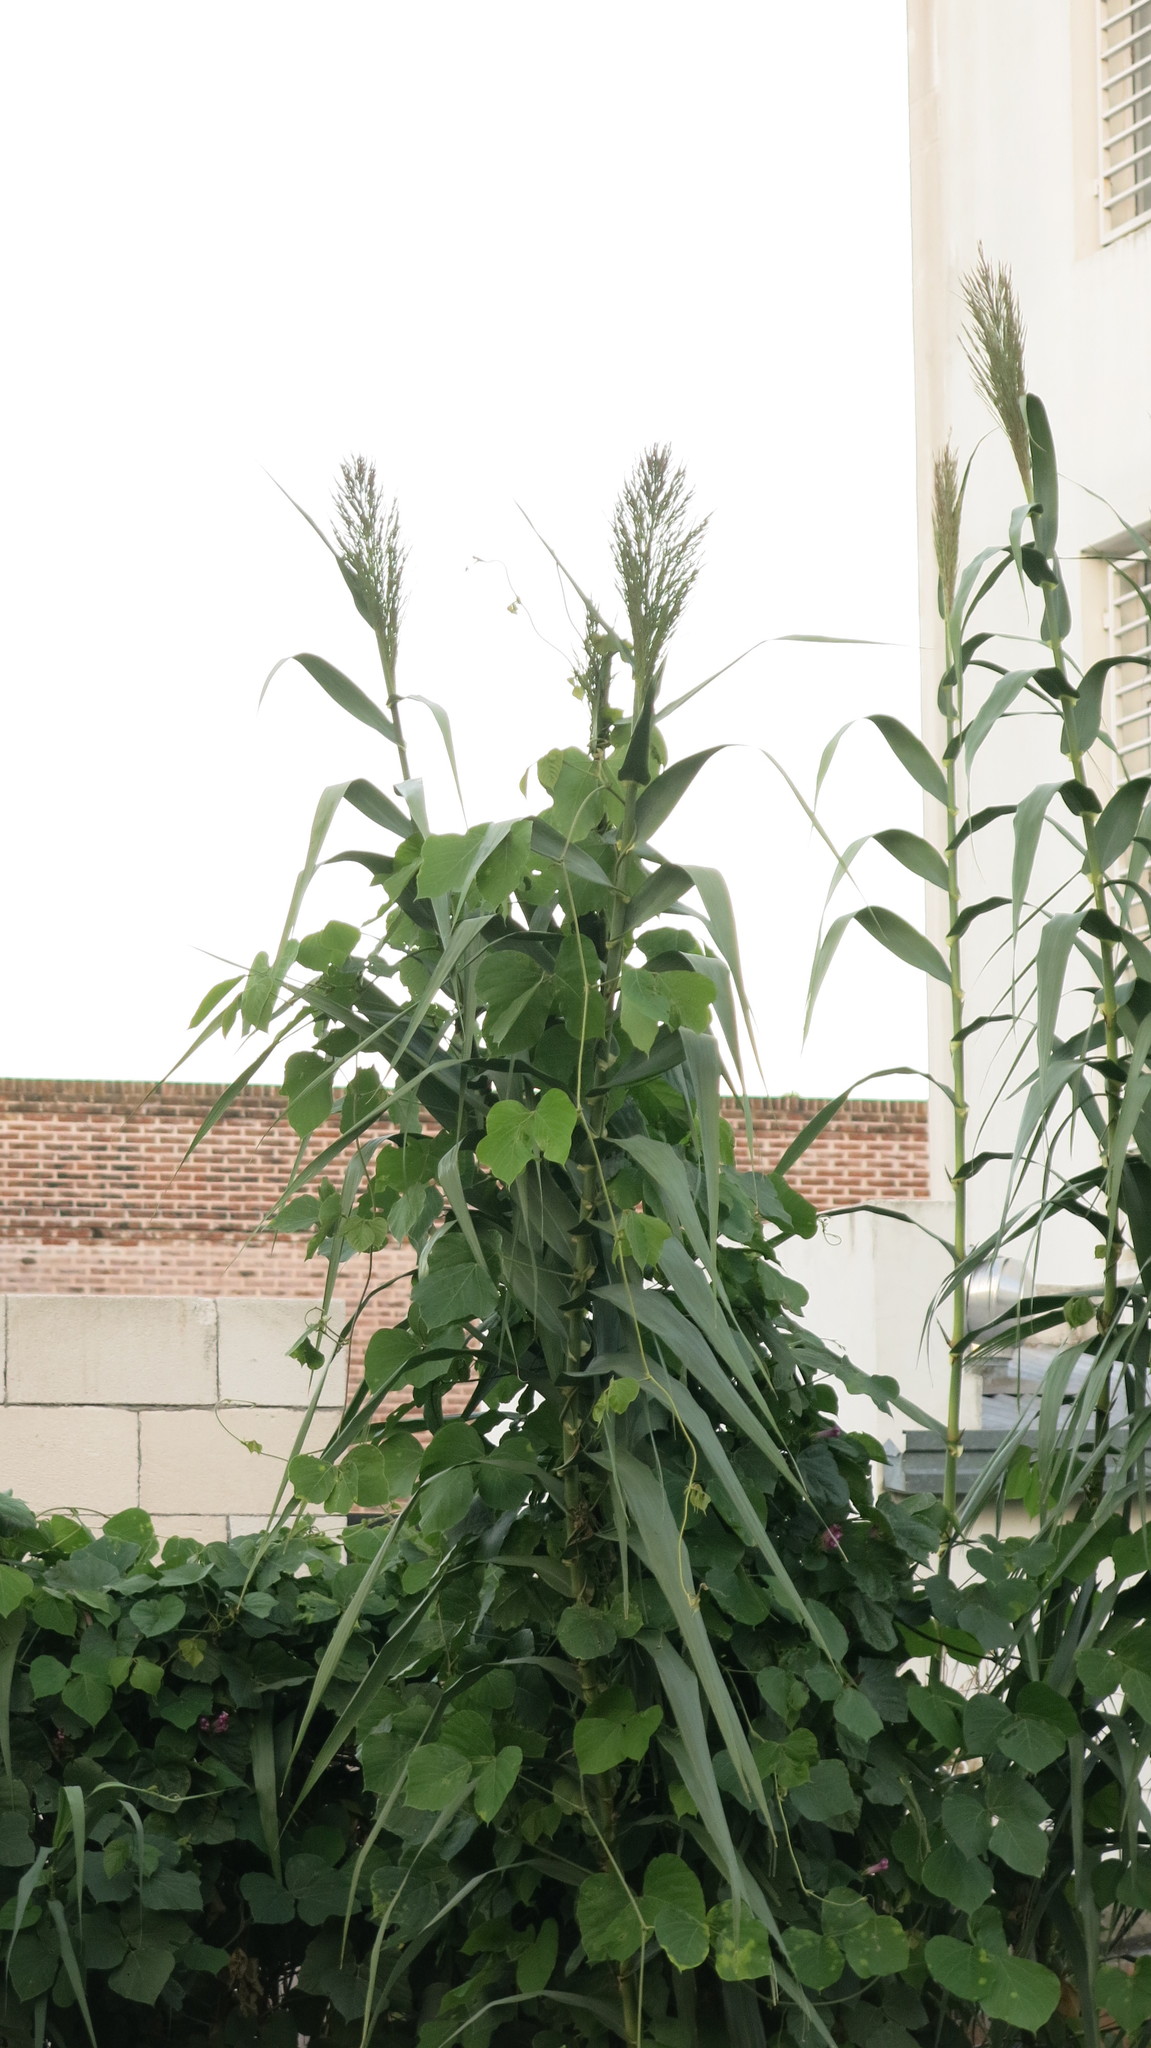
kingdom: Plantae
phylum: Tracheophyta
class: Liliopsida
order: Poales
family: Poaceae
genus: Arundo
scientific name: Arundo donax
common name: Giant reed
